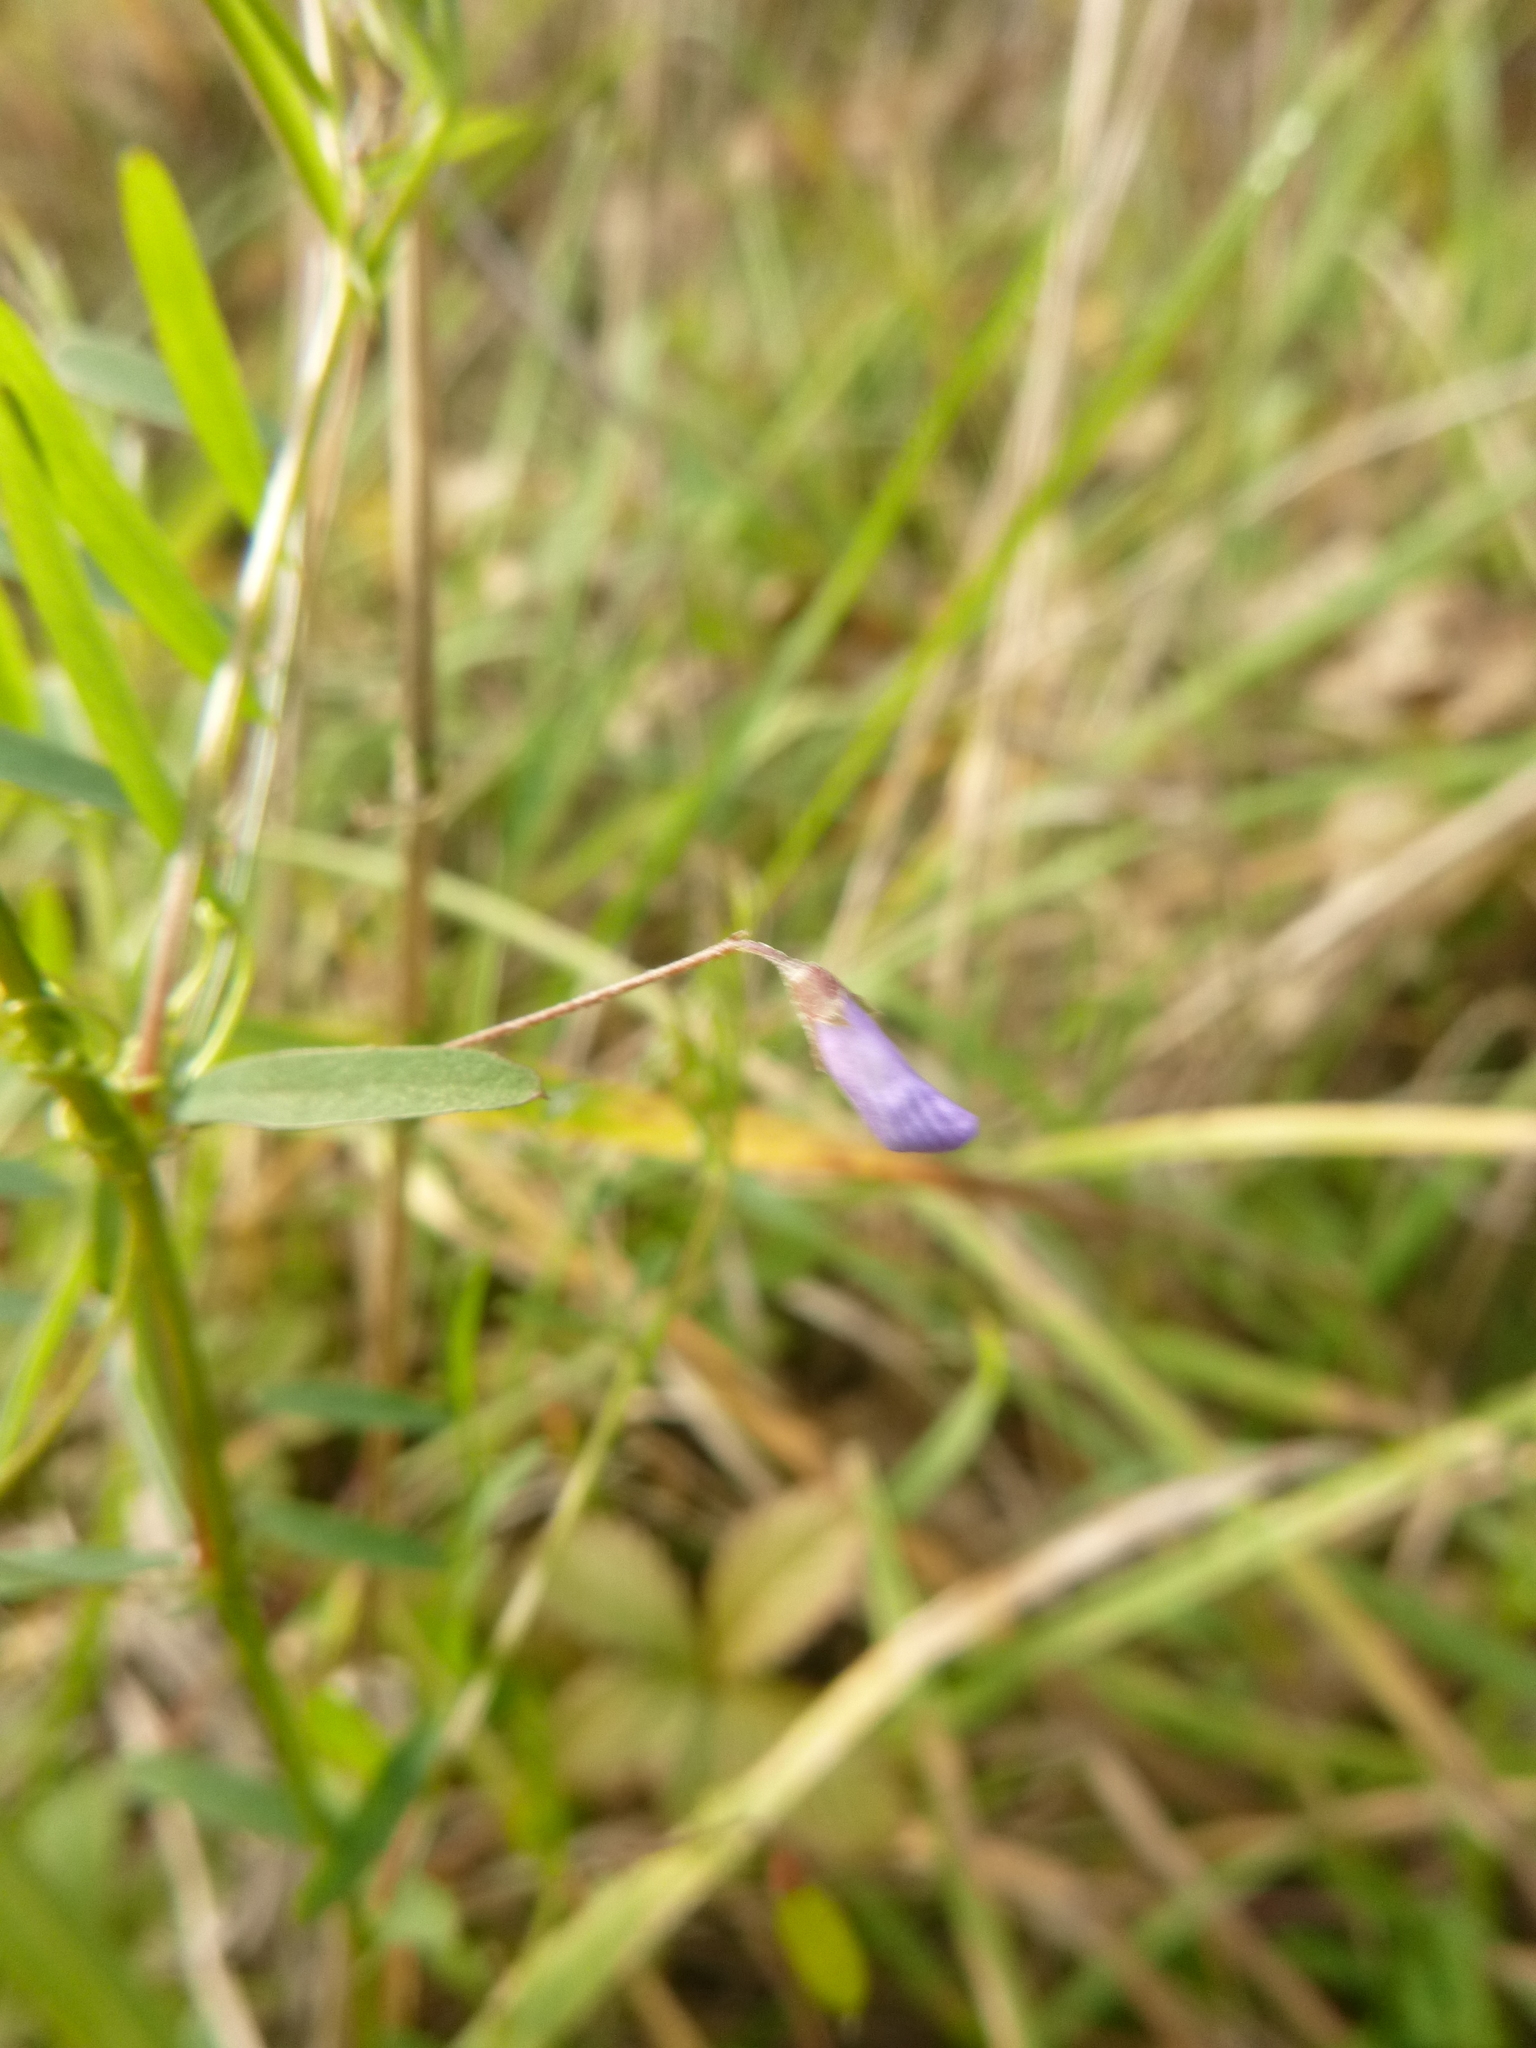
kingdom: Plantae
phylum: Tracheophyta
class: Magnoliopsida
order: Fabales
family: Fabaceae
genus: Vicia
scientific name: Vicia tetrasperma
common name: Smooth tare
